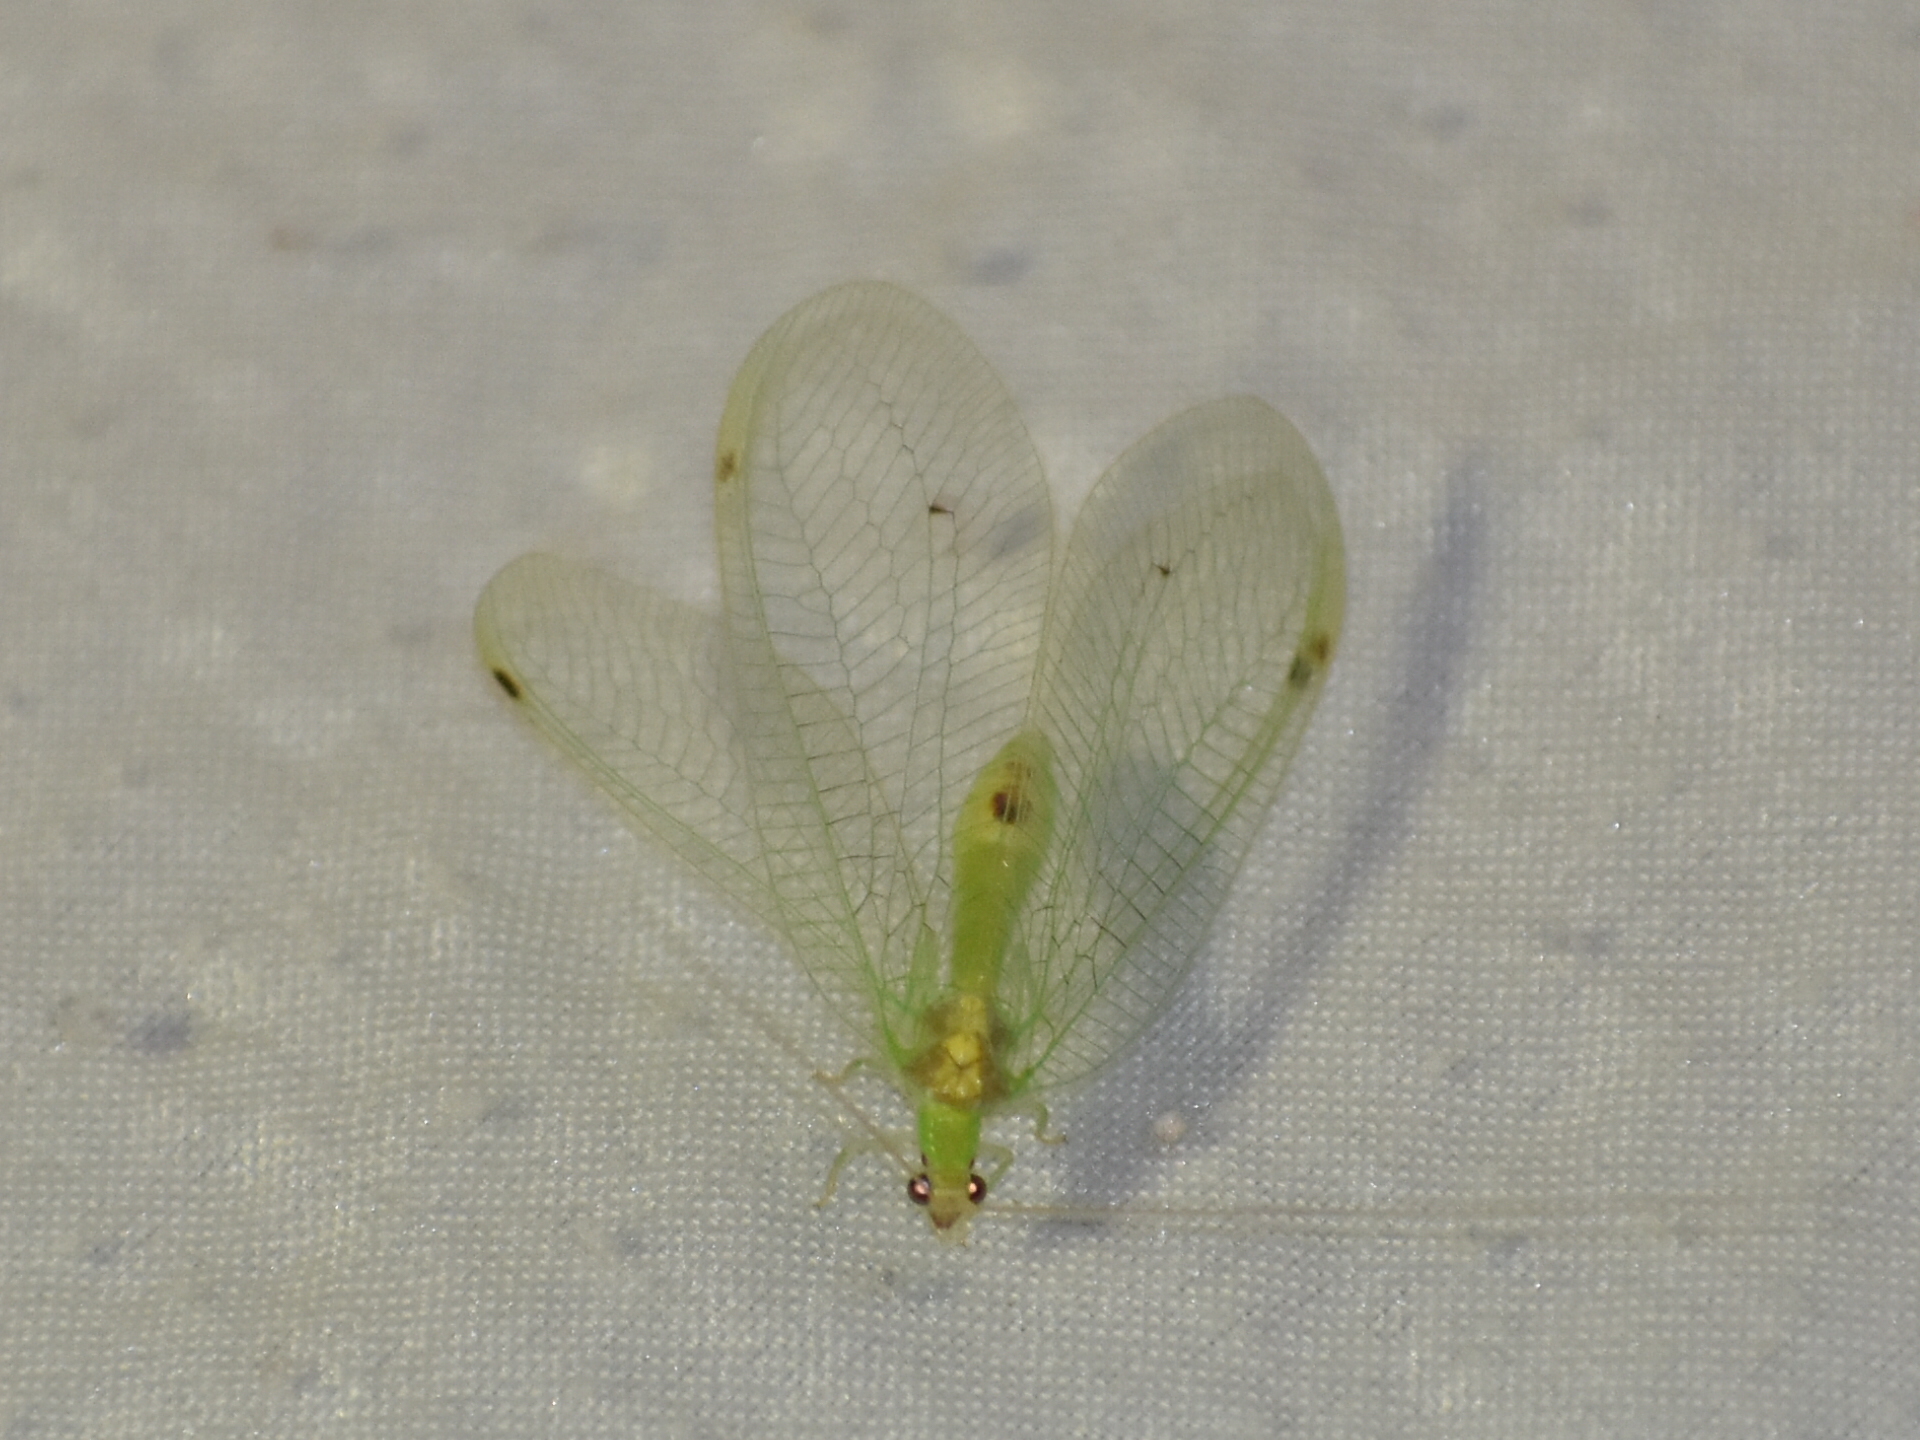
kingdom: Animalia
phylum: Arthropoda
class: Insecta
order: Neuroptera
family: Chrysopidae
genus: Leucochrysa
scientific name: Leucochrysa insularis
